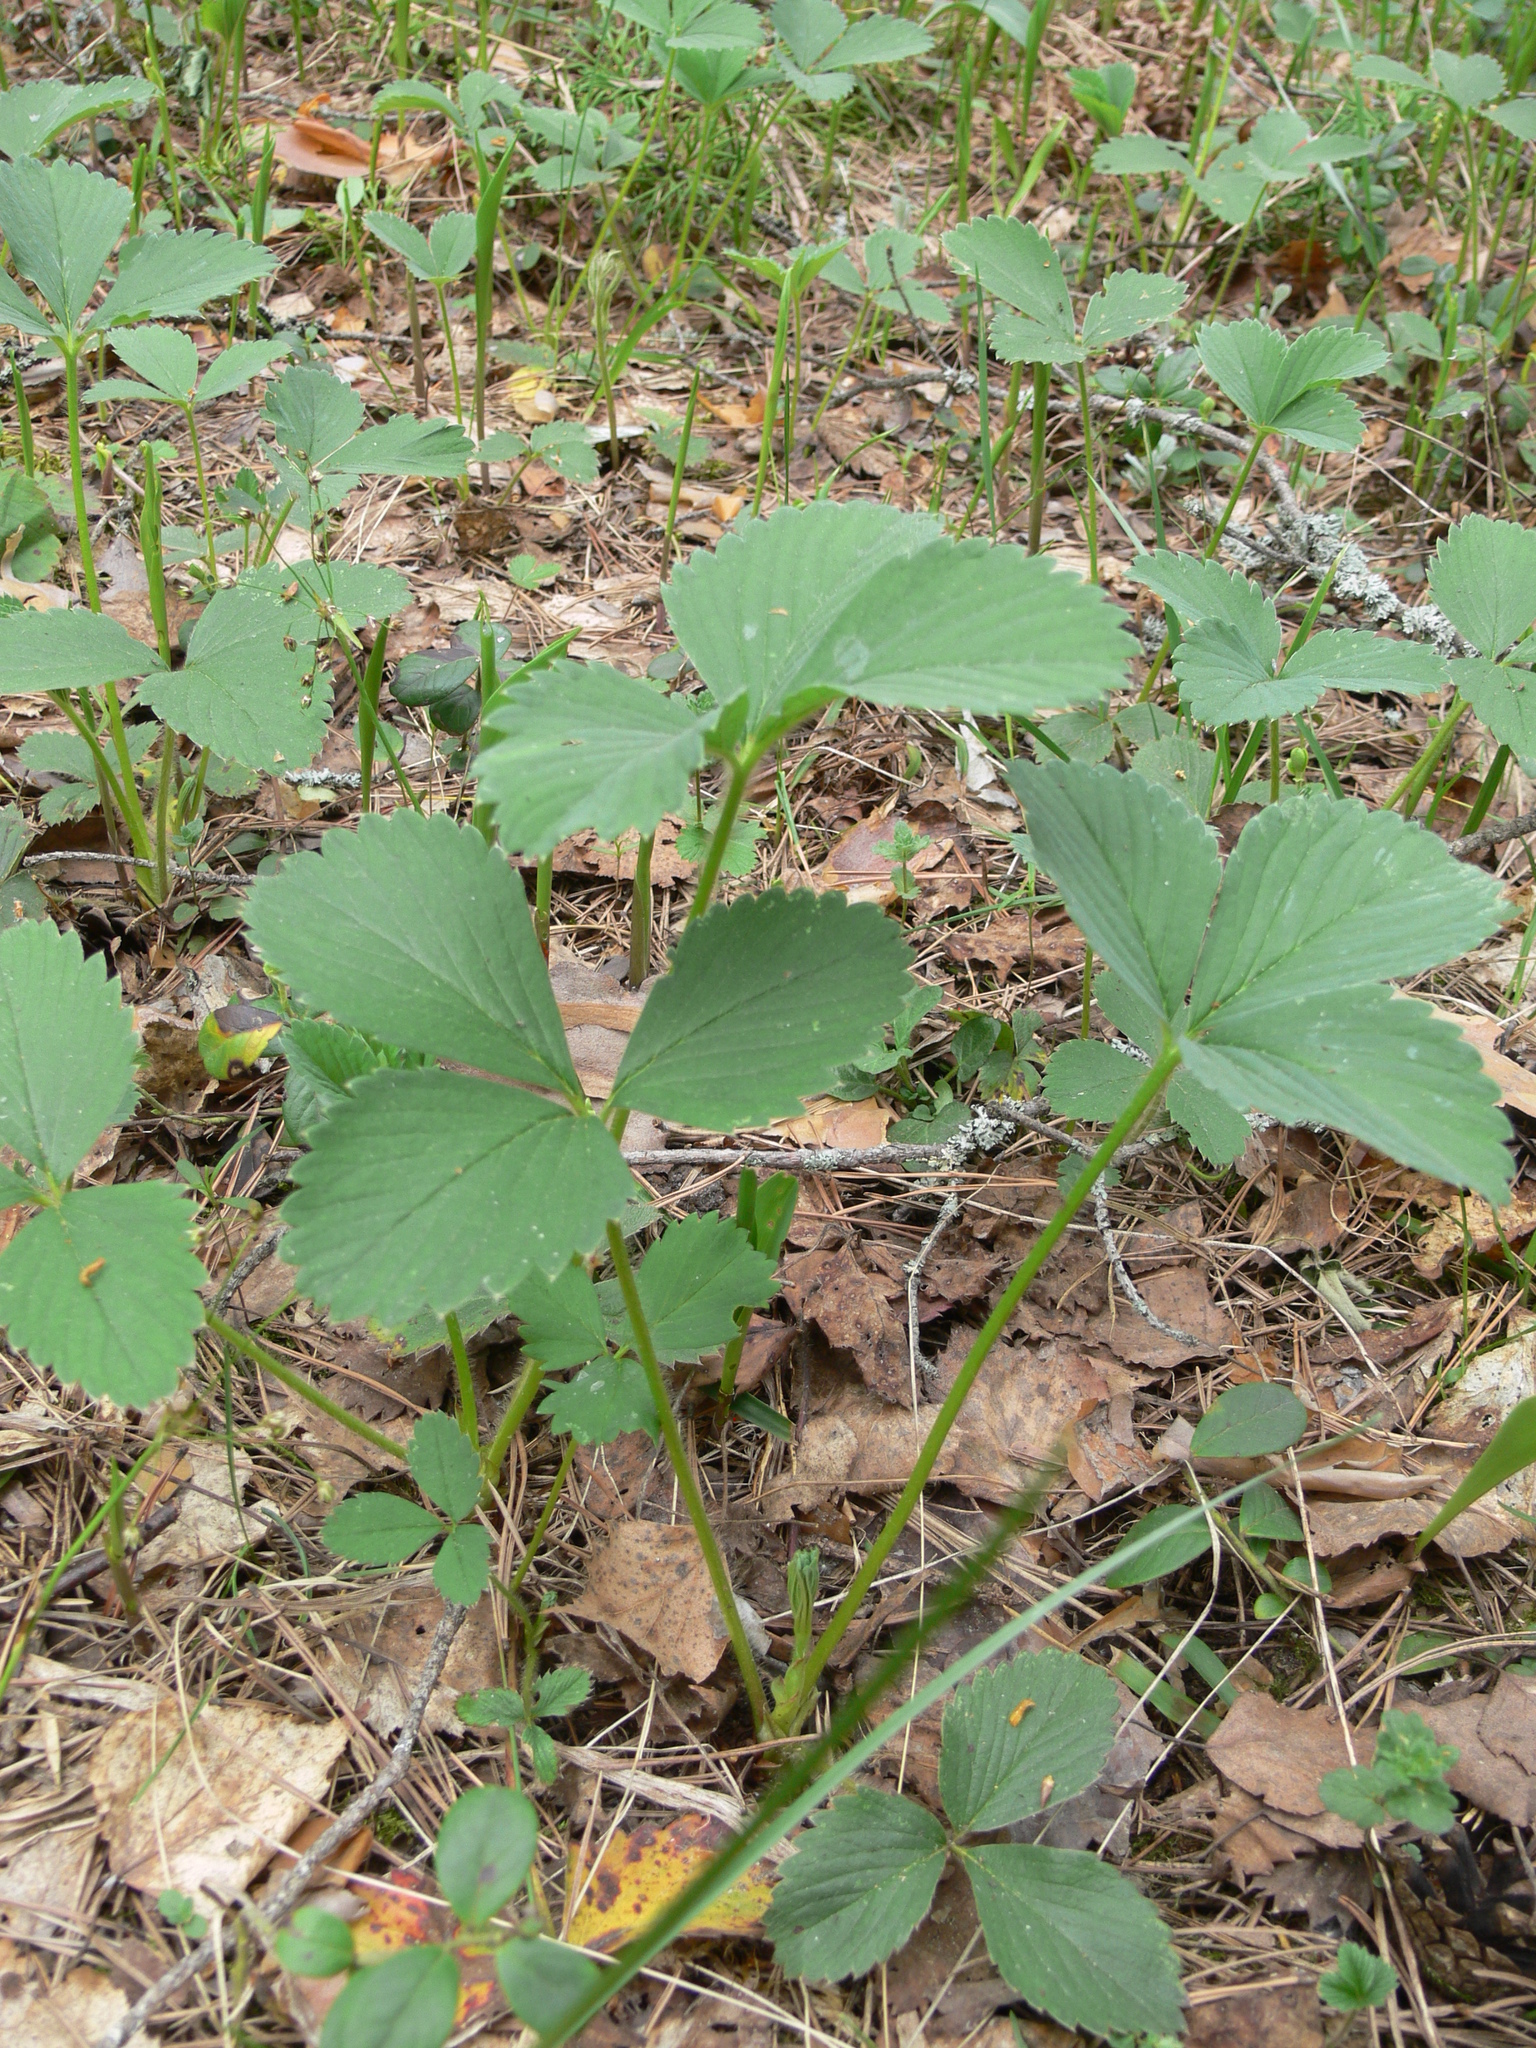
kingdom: Plantae
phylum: Tracheophyta
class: Magnoliopsida
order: Rosales
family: Rosaceae
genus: Fragaria
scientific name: Fragaria ananassa
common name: Garden strawberry
